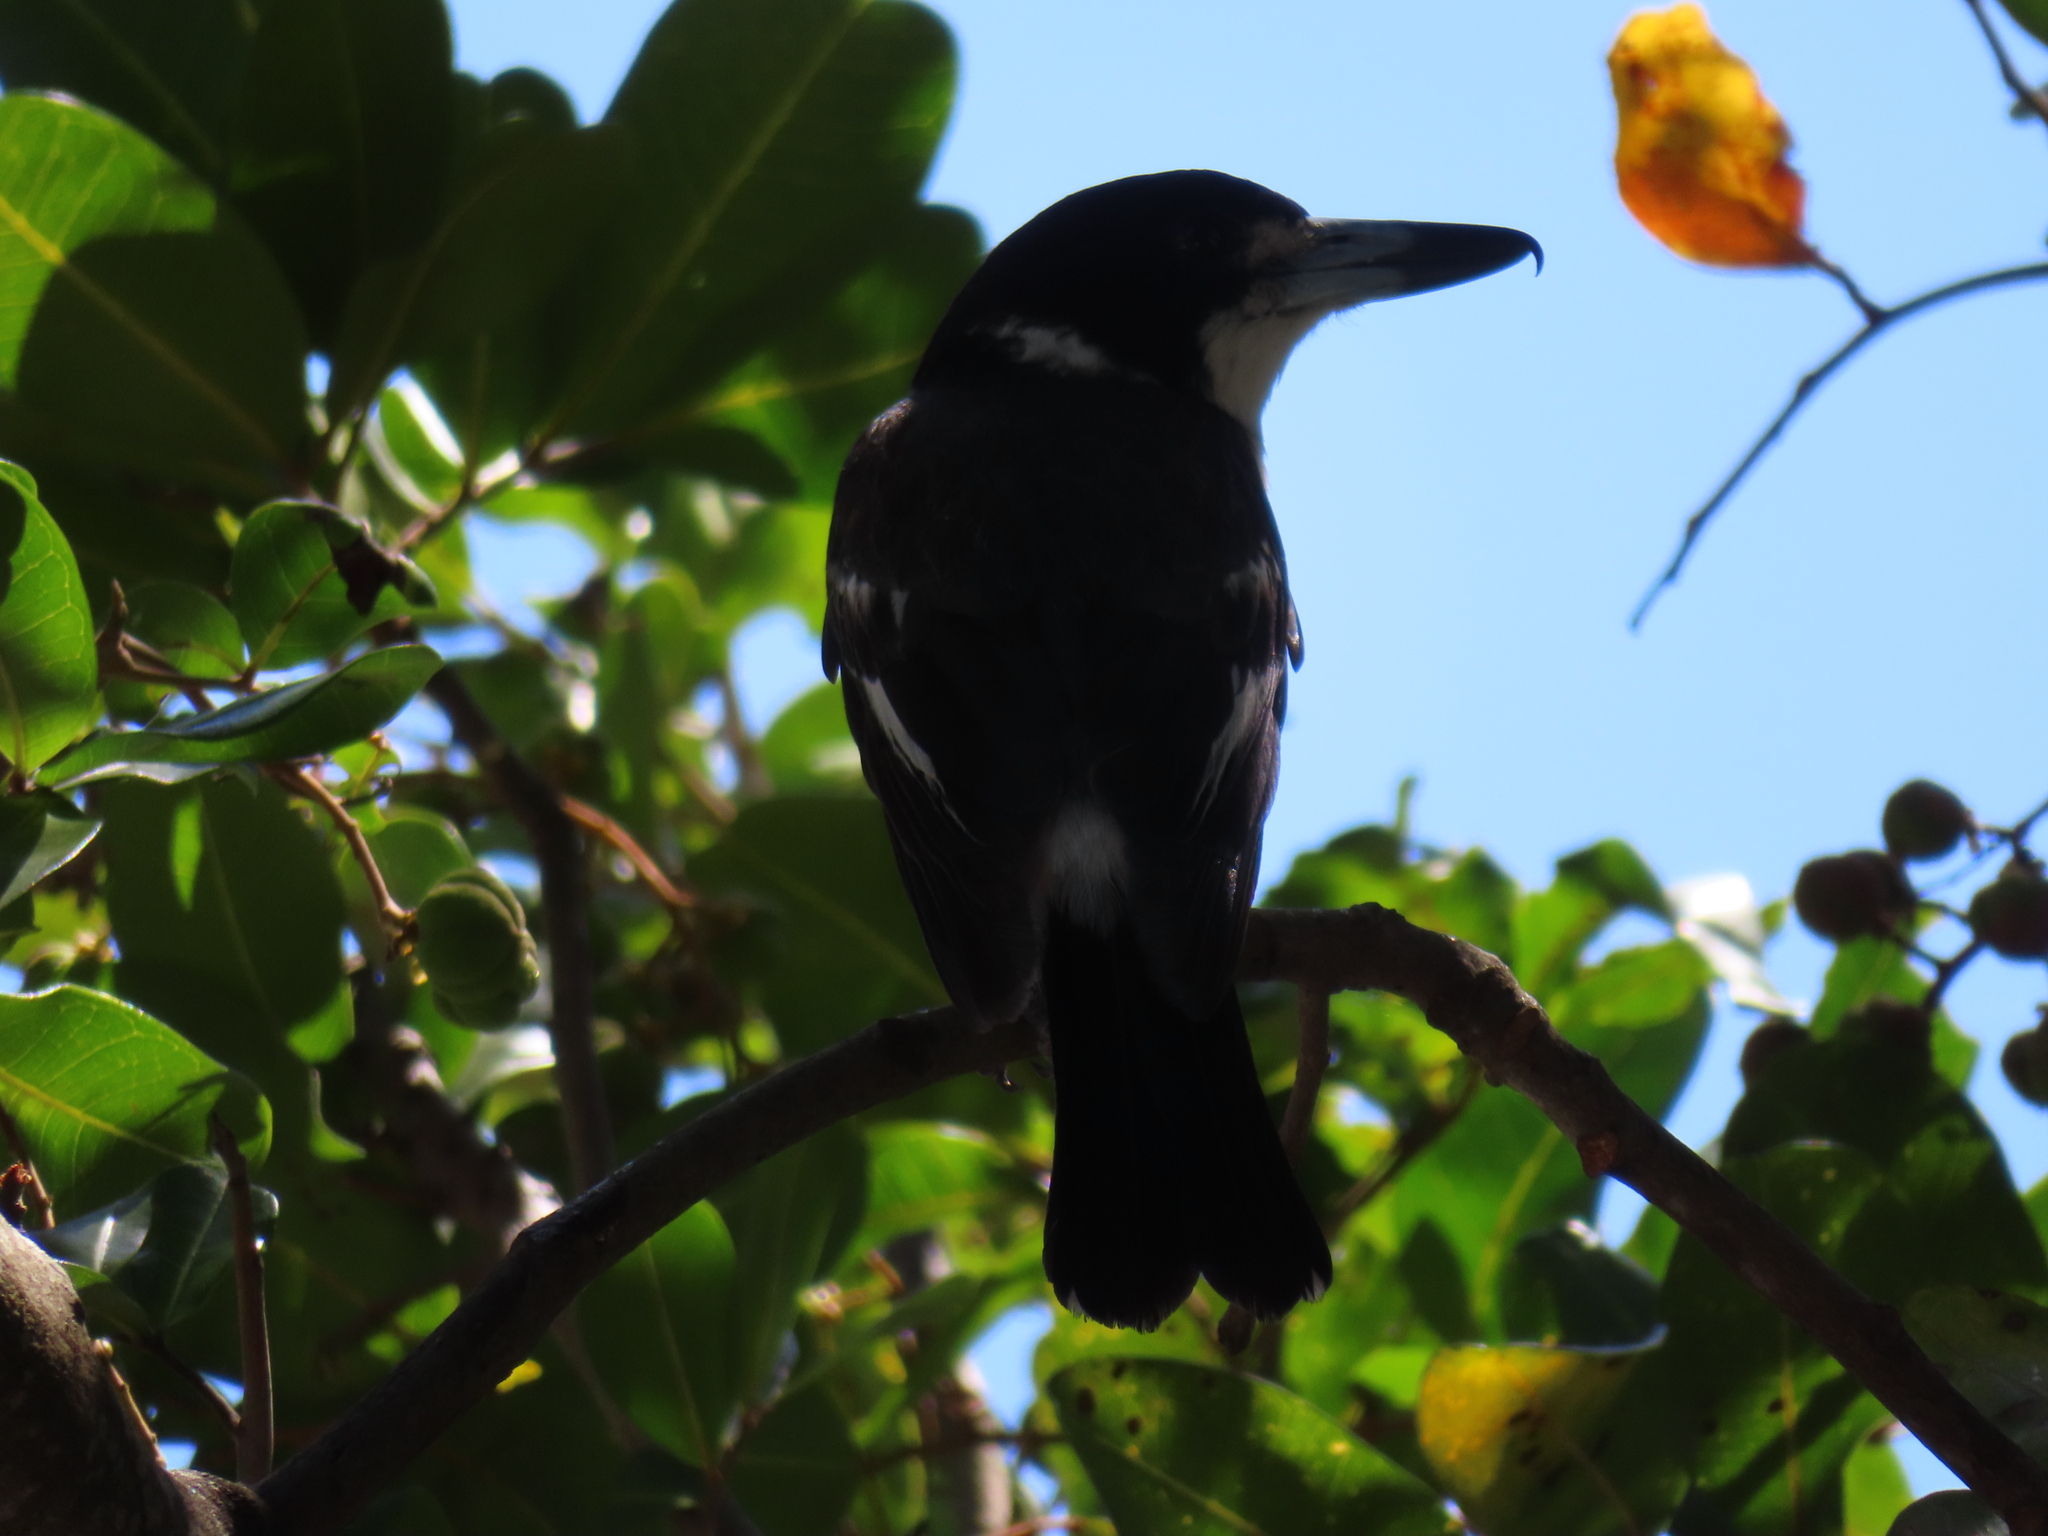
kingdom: Animalia
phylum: Chordata
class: Aves
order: Passeriformes
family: Cracticidae
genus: Cracticus
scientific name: Cracticus torquatus
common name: Grey butcherbird
